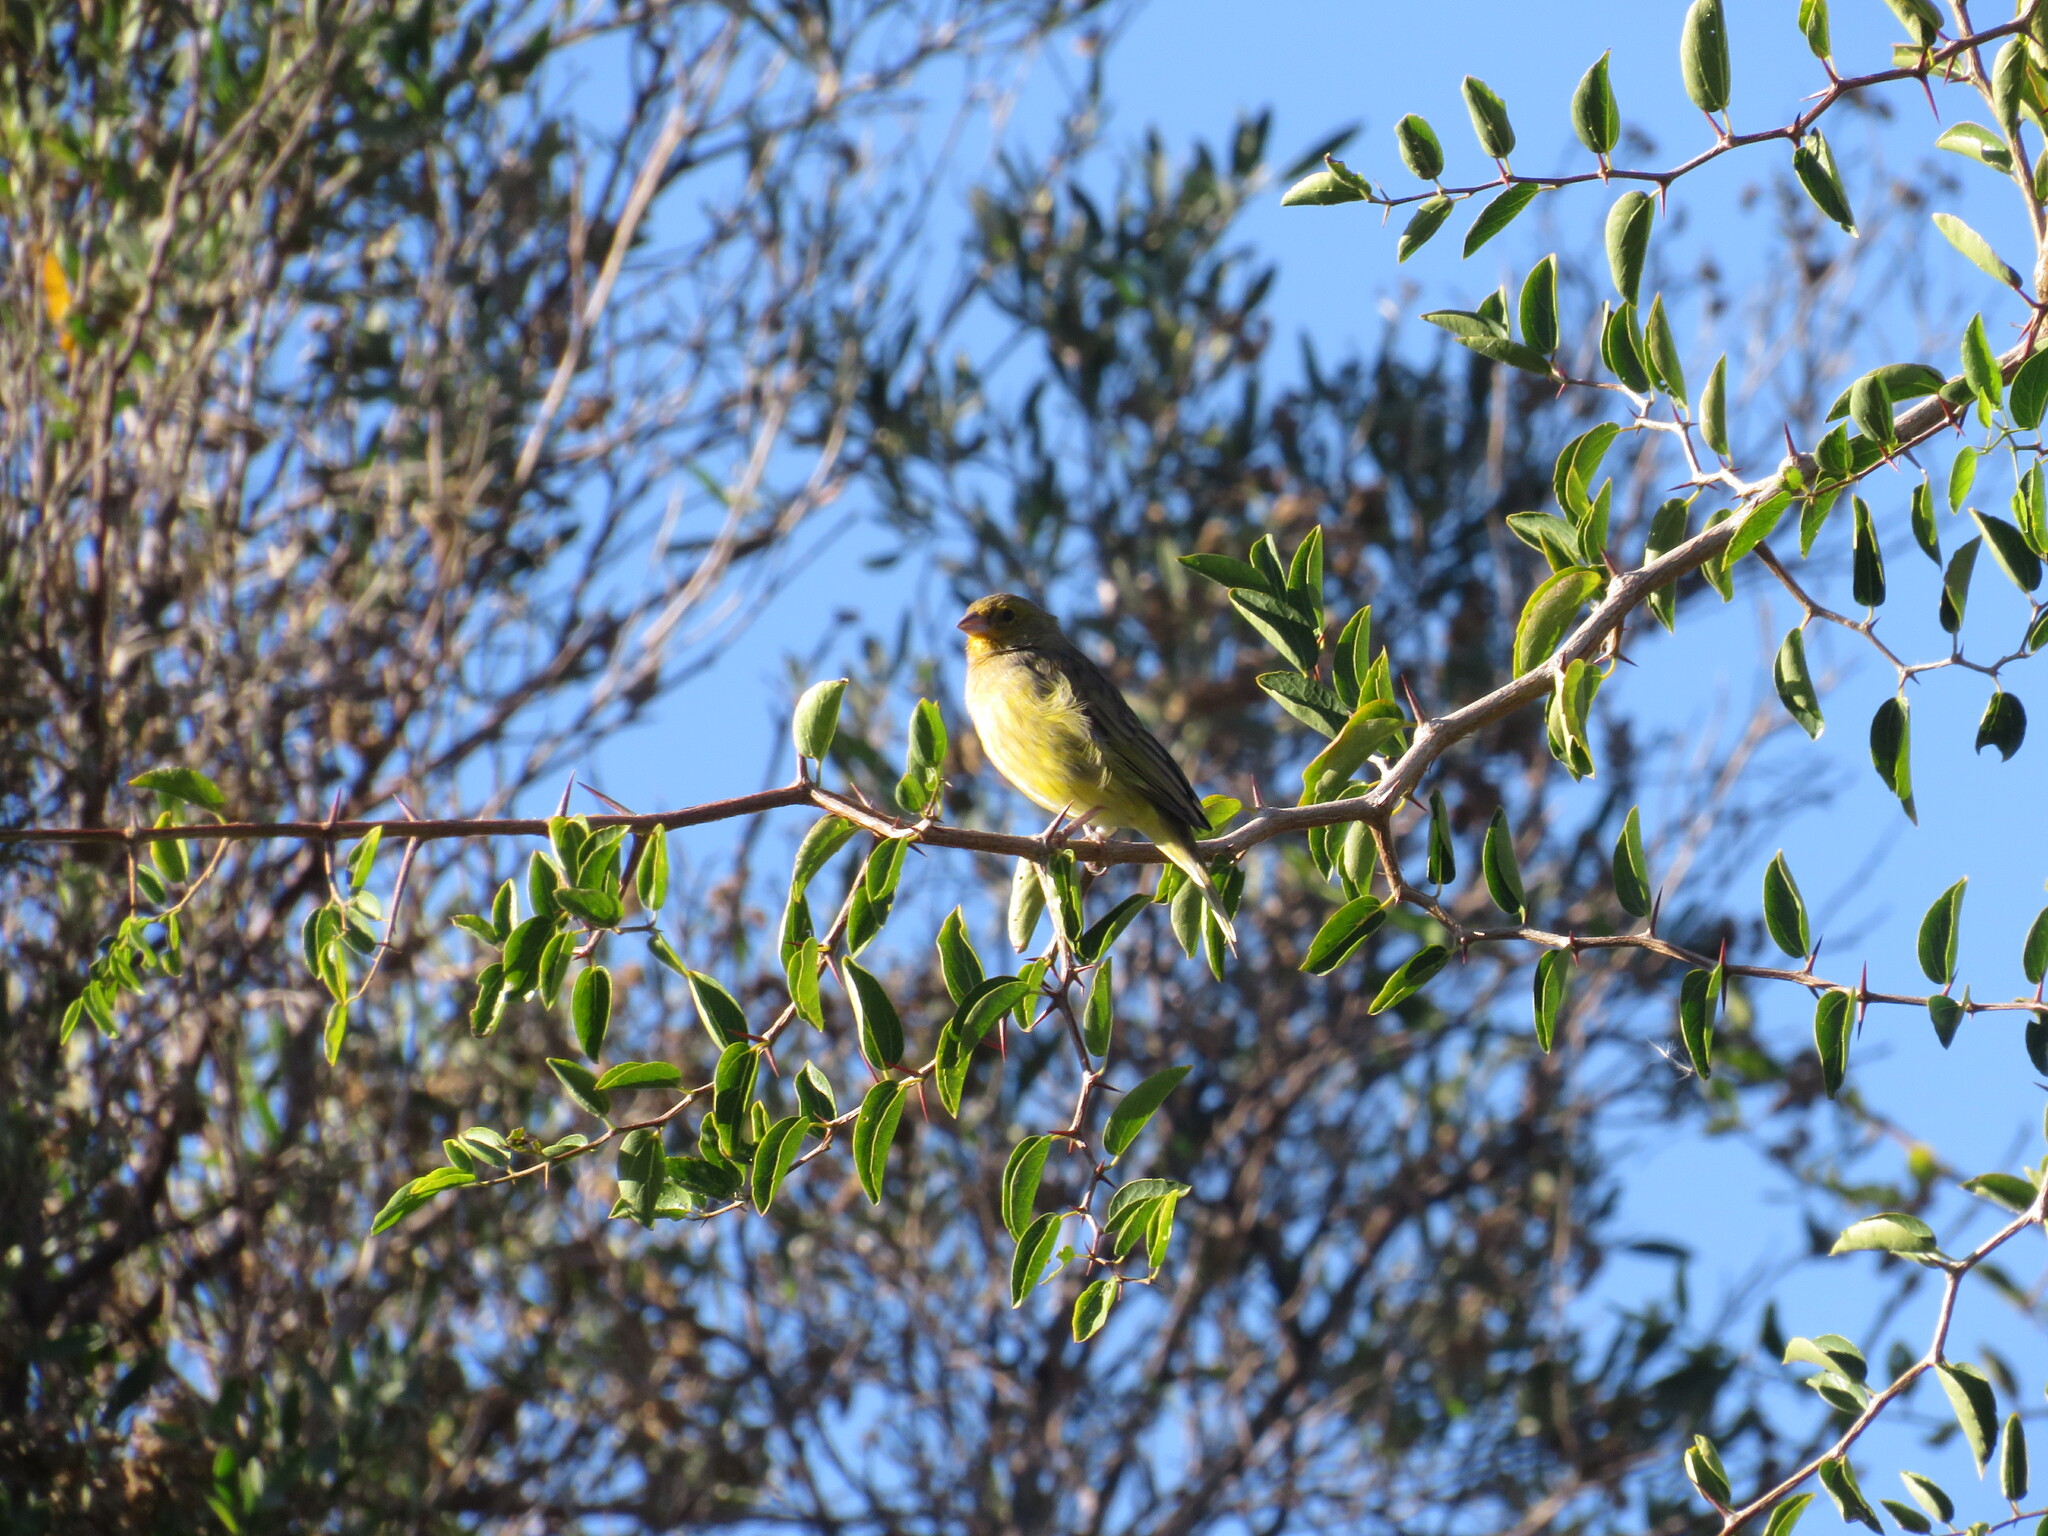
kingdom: Animalia
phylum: Chordata
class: Aves
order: Passeriformes
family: Thraupidae
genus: Sicalis
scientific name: Sicalis flaveola
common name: Saffron finch
